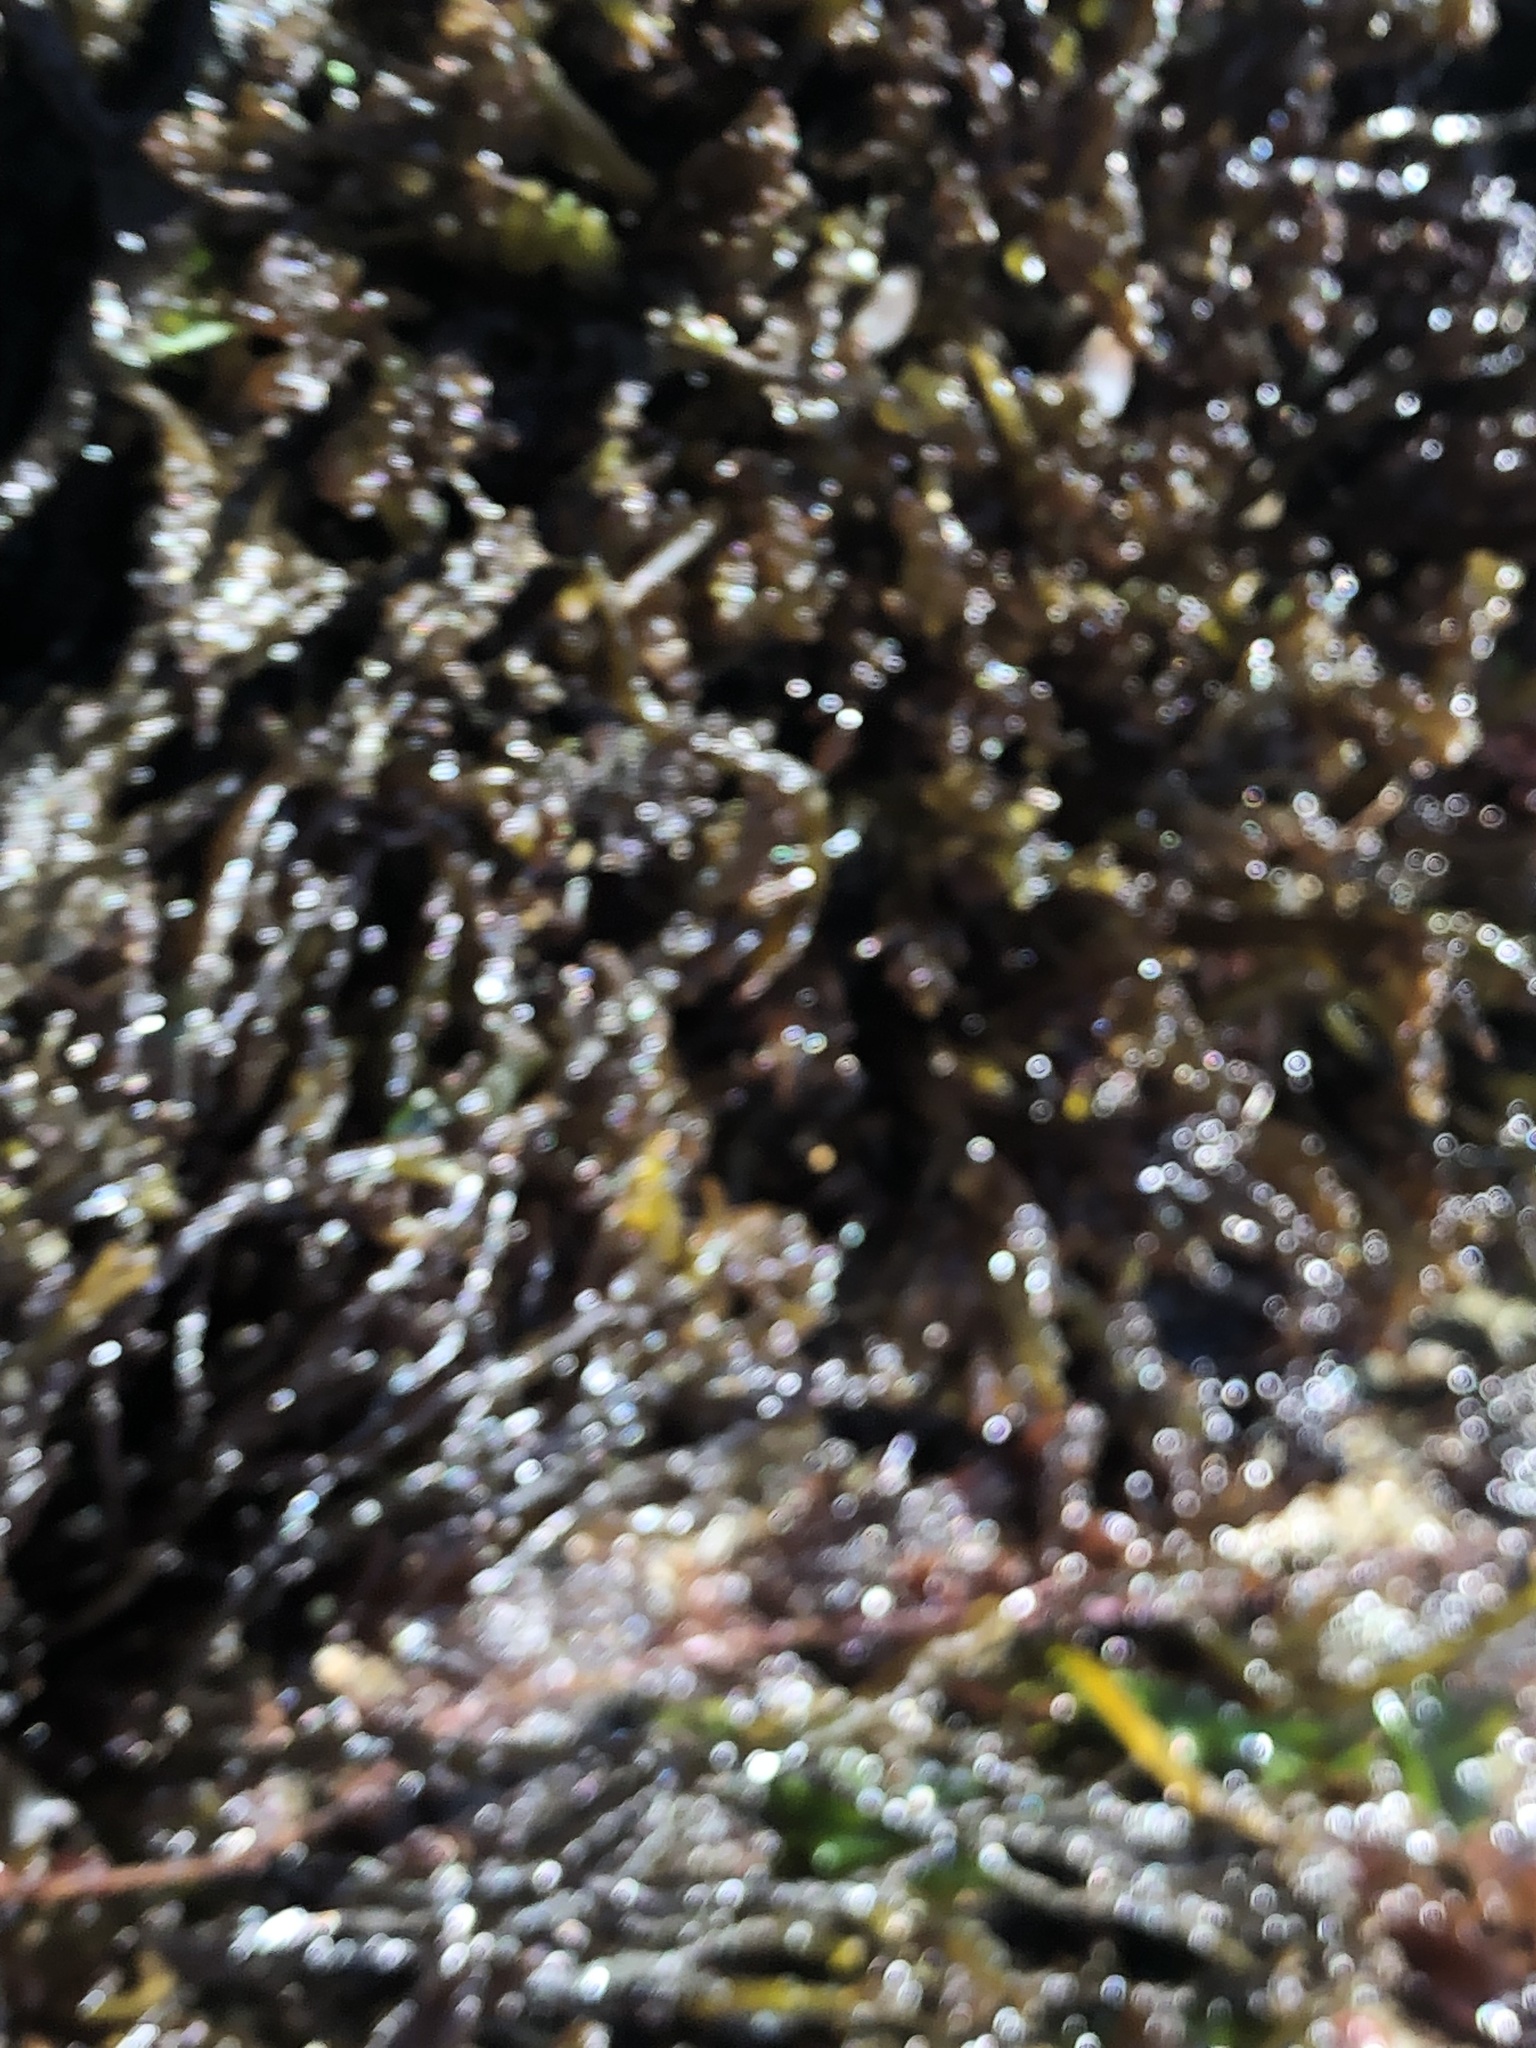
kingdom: Plantae
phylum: Rhodophyta
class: Florideophyceae
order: Rhodymeniales
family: Champiaceae
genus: Neogastroclonium
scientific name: Neogastroclonium subarticulatum
